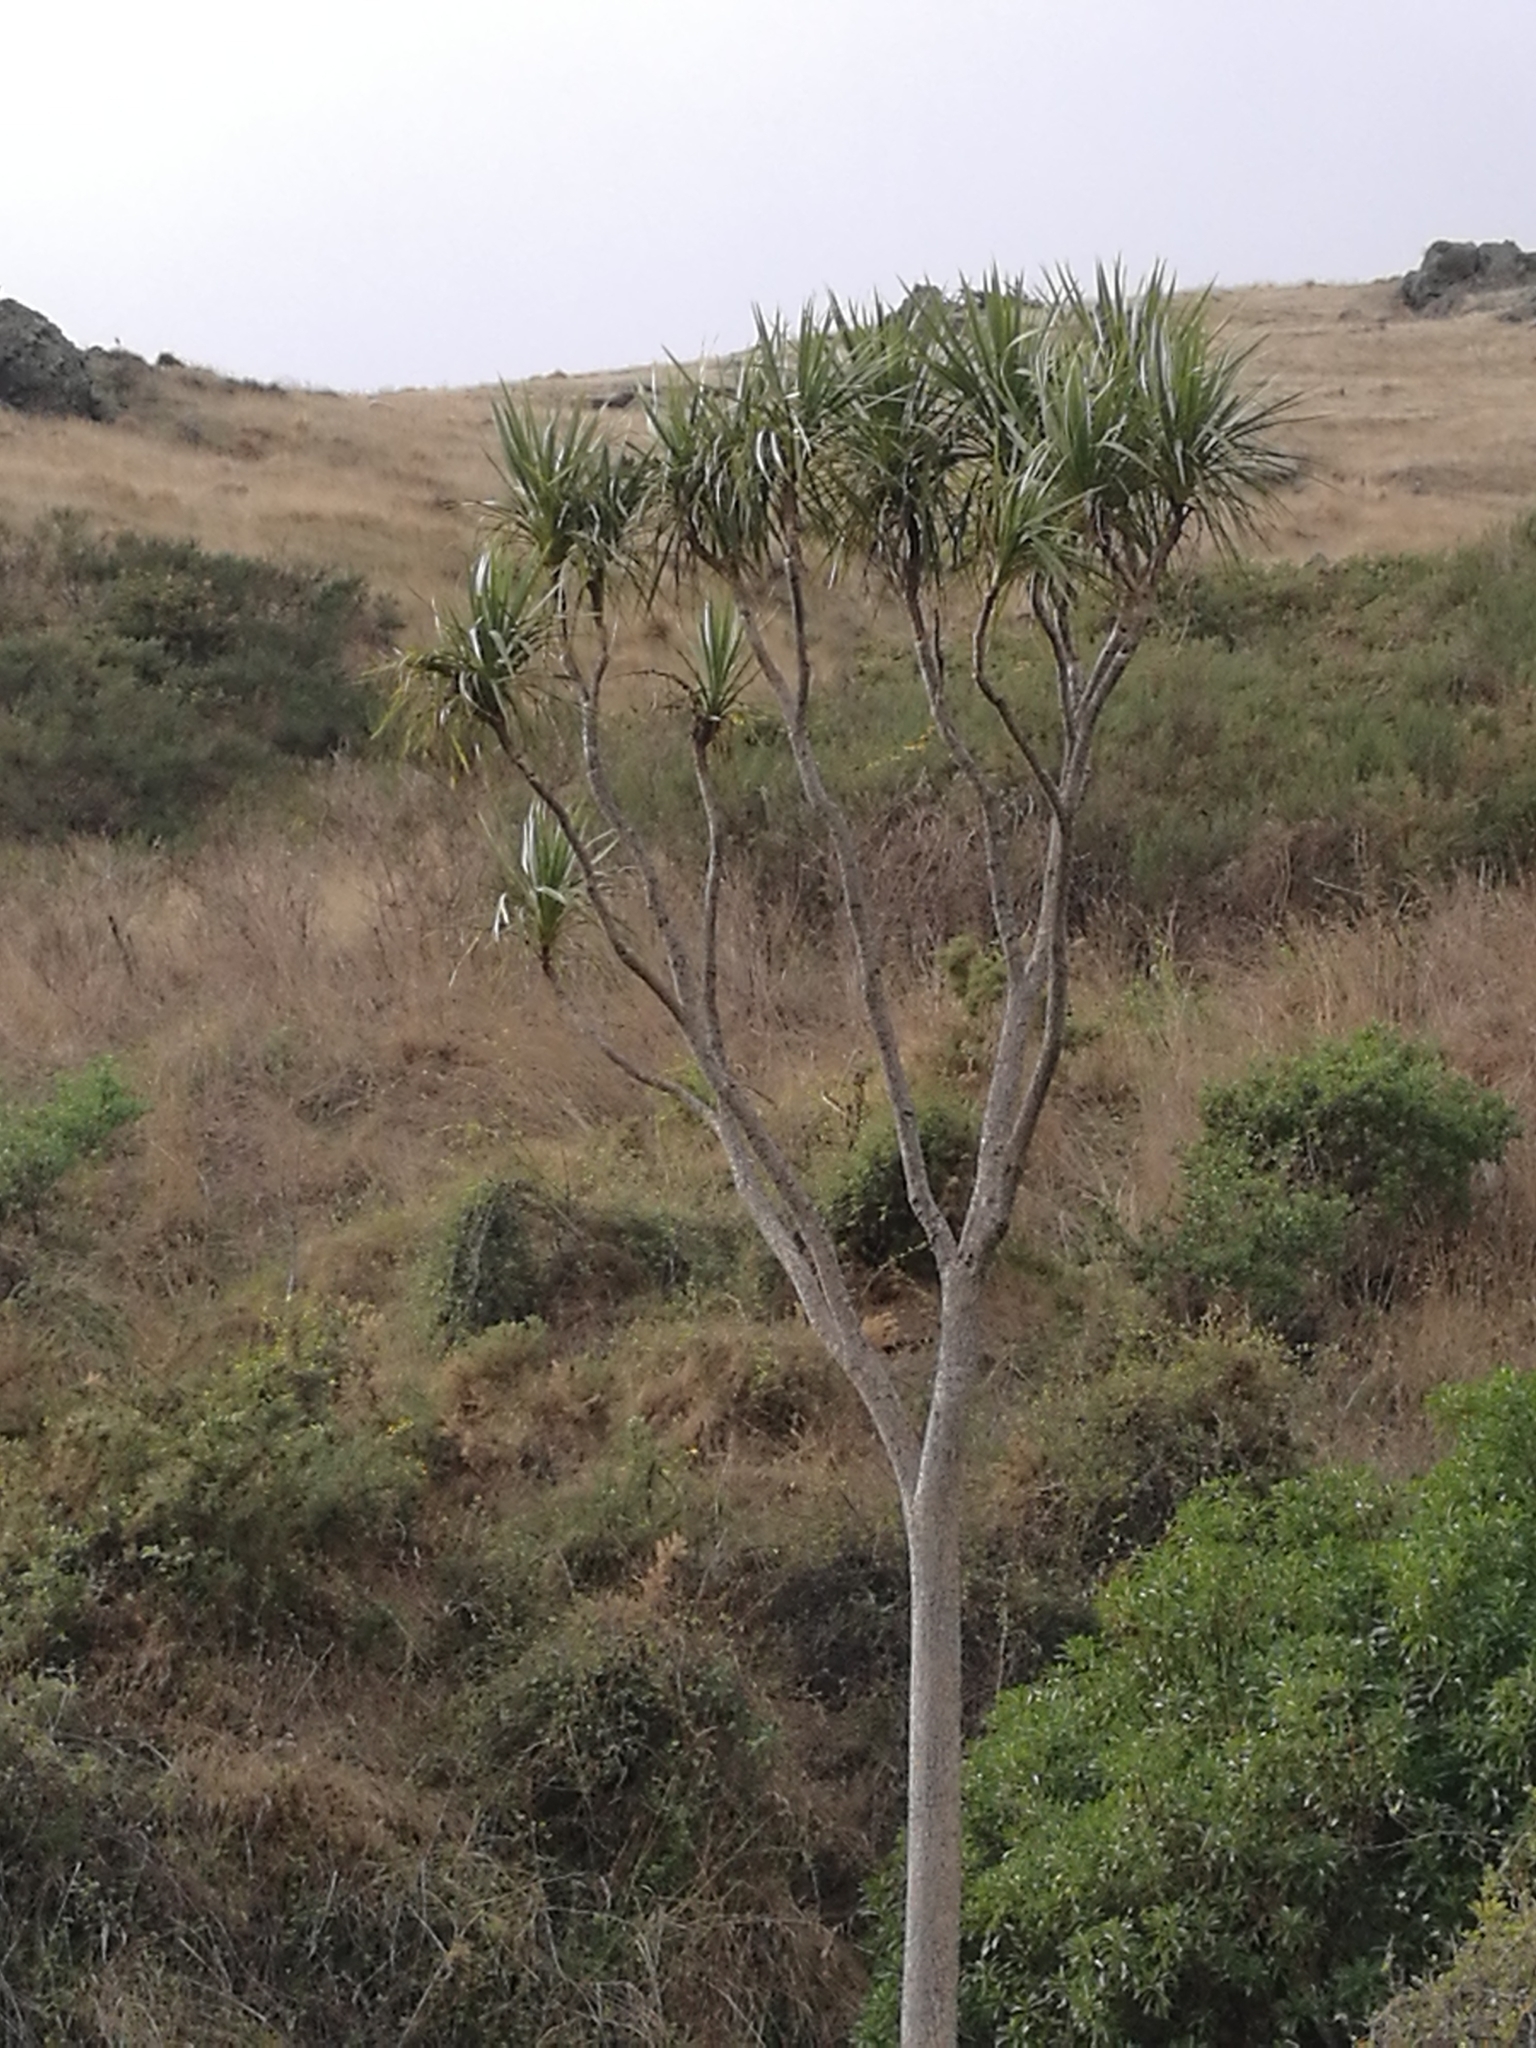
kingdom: Plantae
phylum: Tracheophyta
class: Liliopsida
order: Asparagales
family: Asparagaceae
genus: Cordyline
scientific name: Cordyline australis
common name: Cabbage-palm
